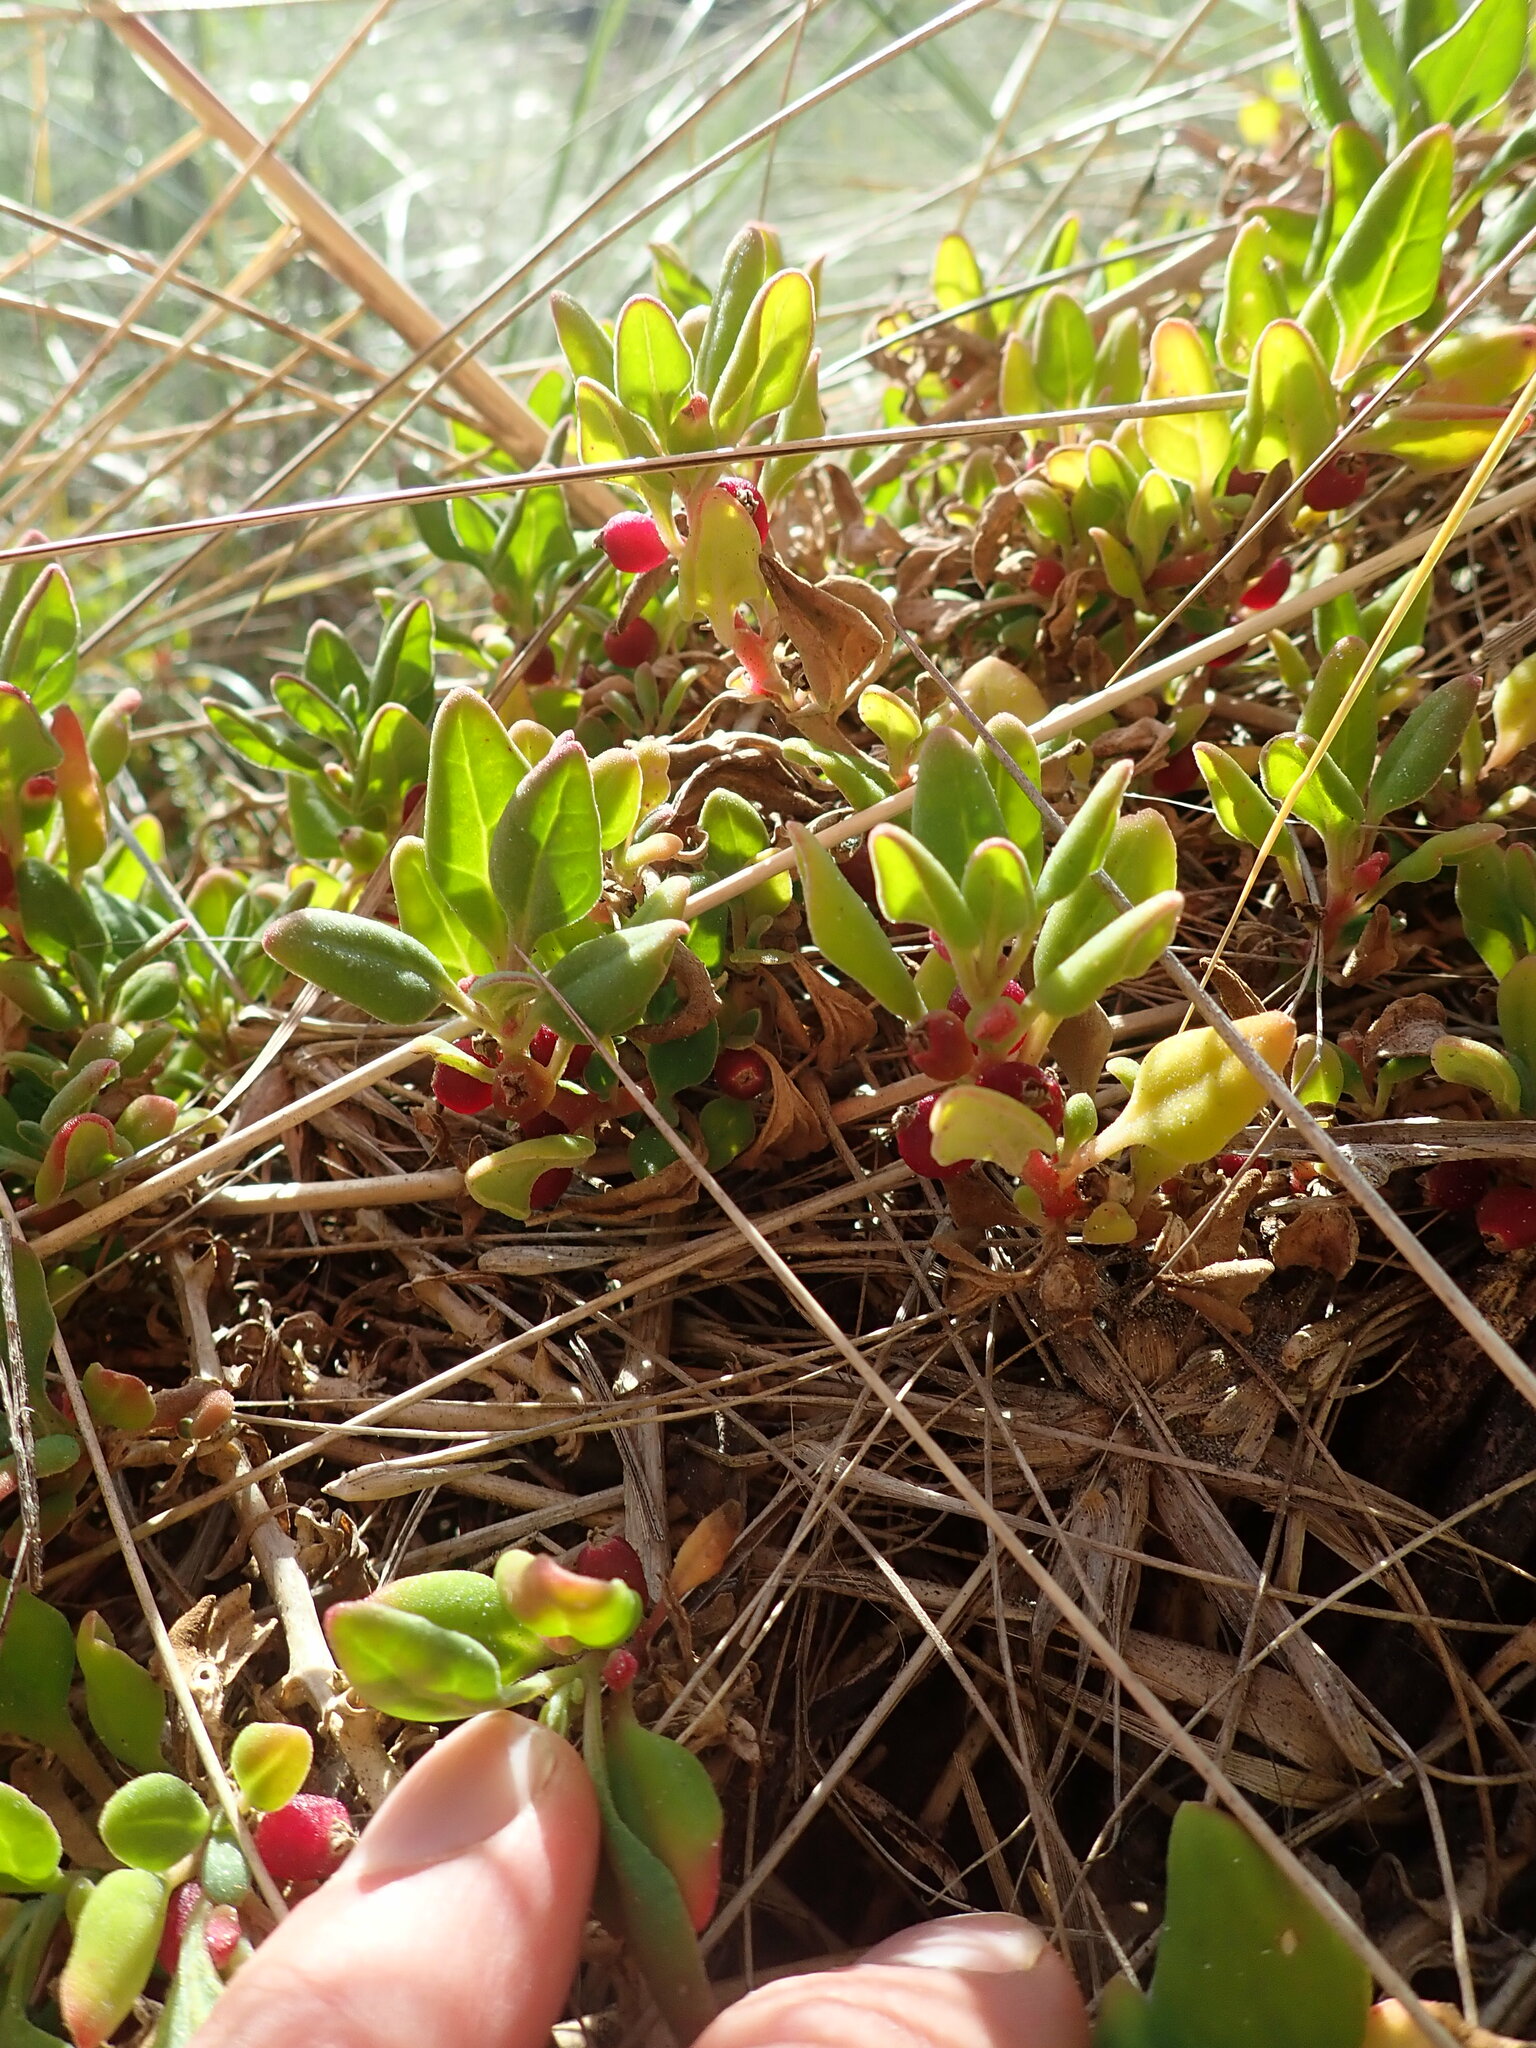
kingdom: Plantae
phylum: Tracheophyta
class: Magnoliopsida
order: Caryophyllales
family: Aizoaceae
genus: Tetragonia
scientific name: Tetragonia implexicoma
